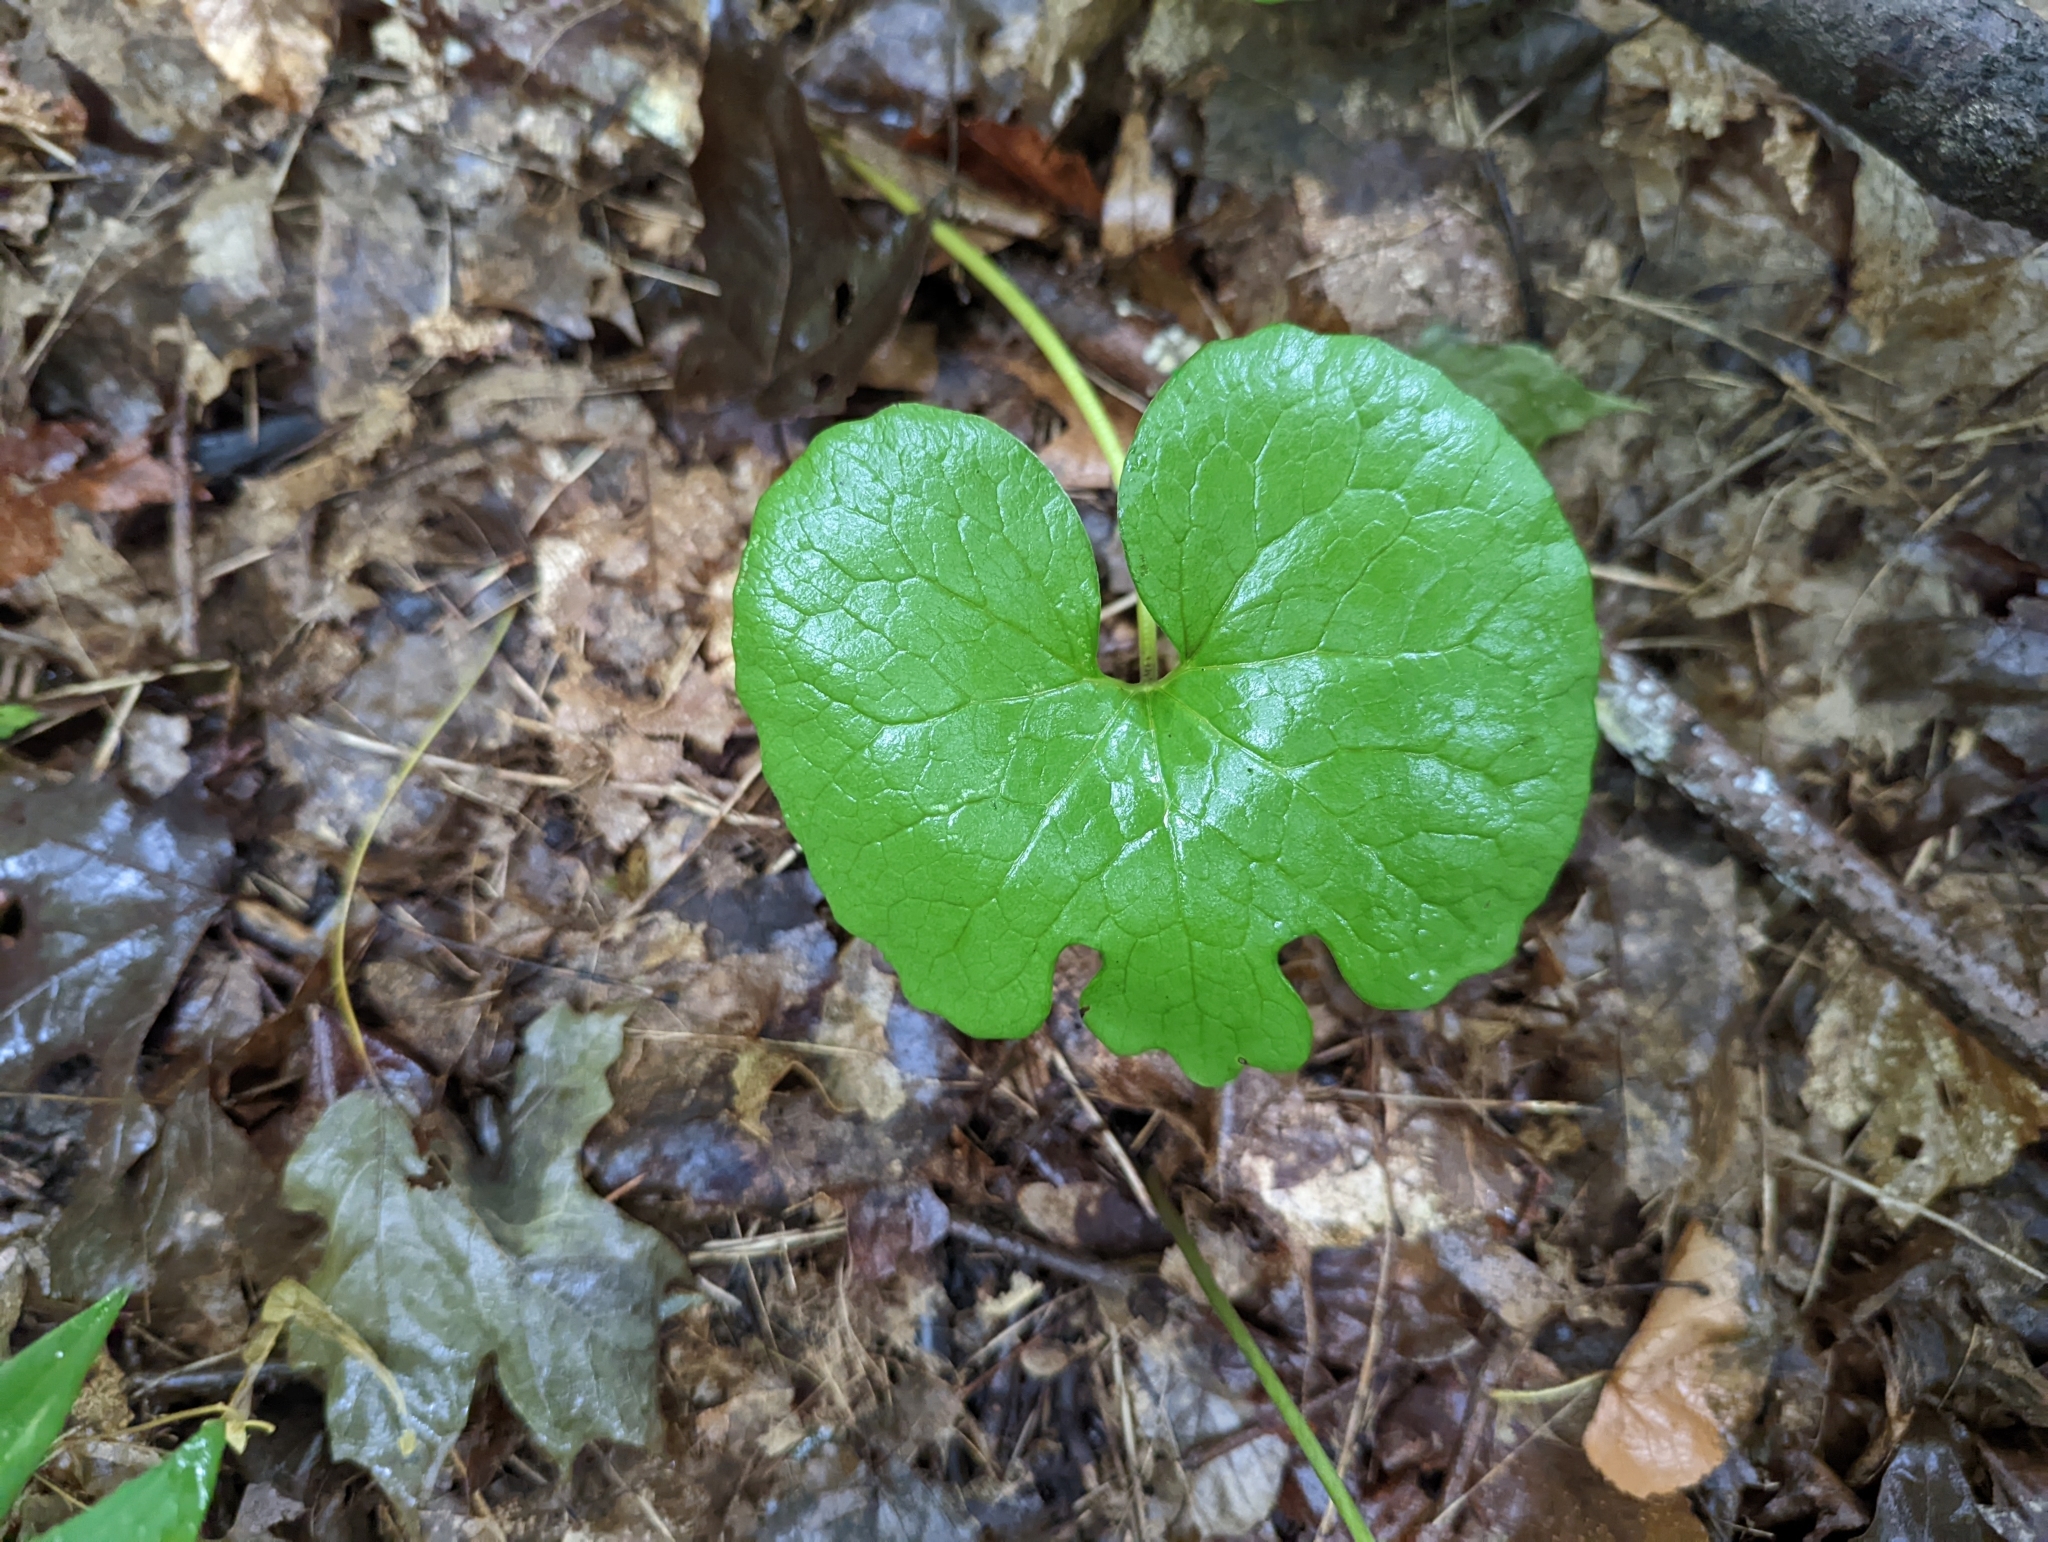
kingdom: Plantae
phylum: Tracheophyta
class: Magnoliopsida
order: Ranunculales
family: Papaveraceae
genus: Sanguinaria
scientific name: Sanguinaria canadensis
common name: Bloodroot
